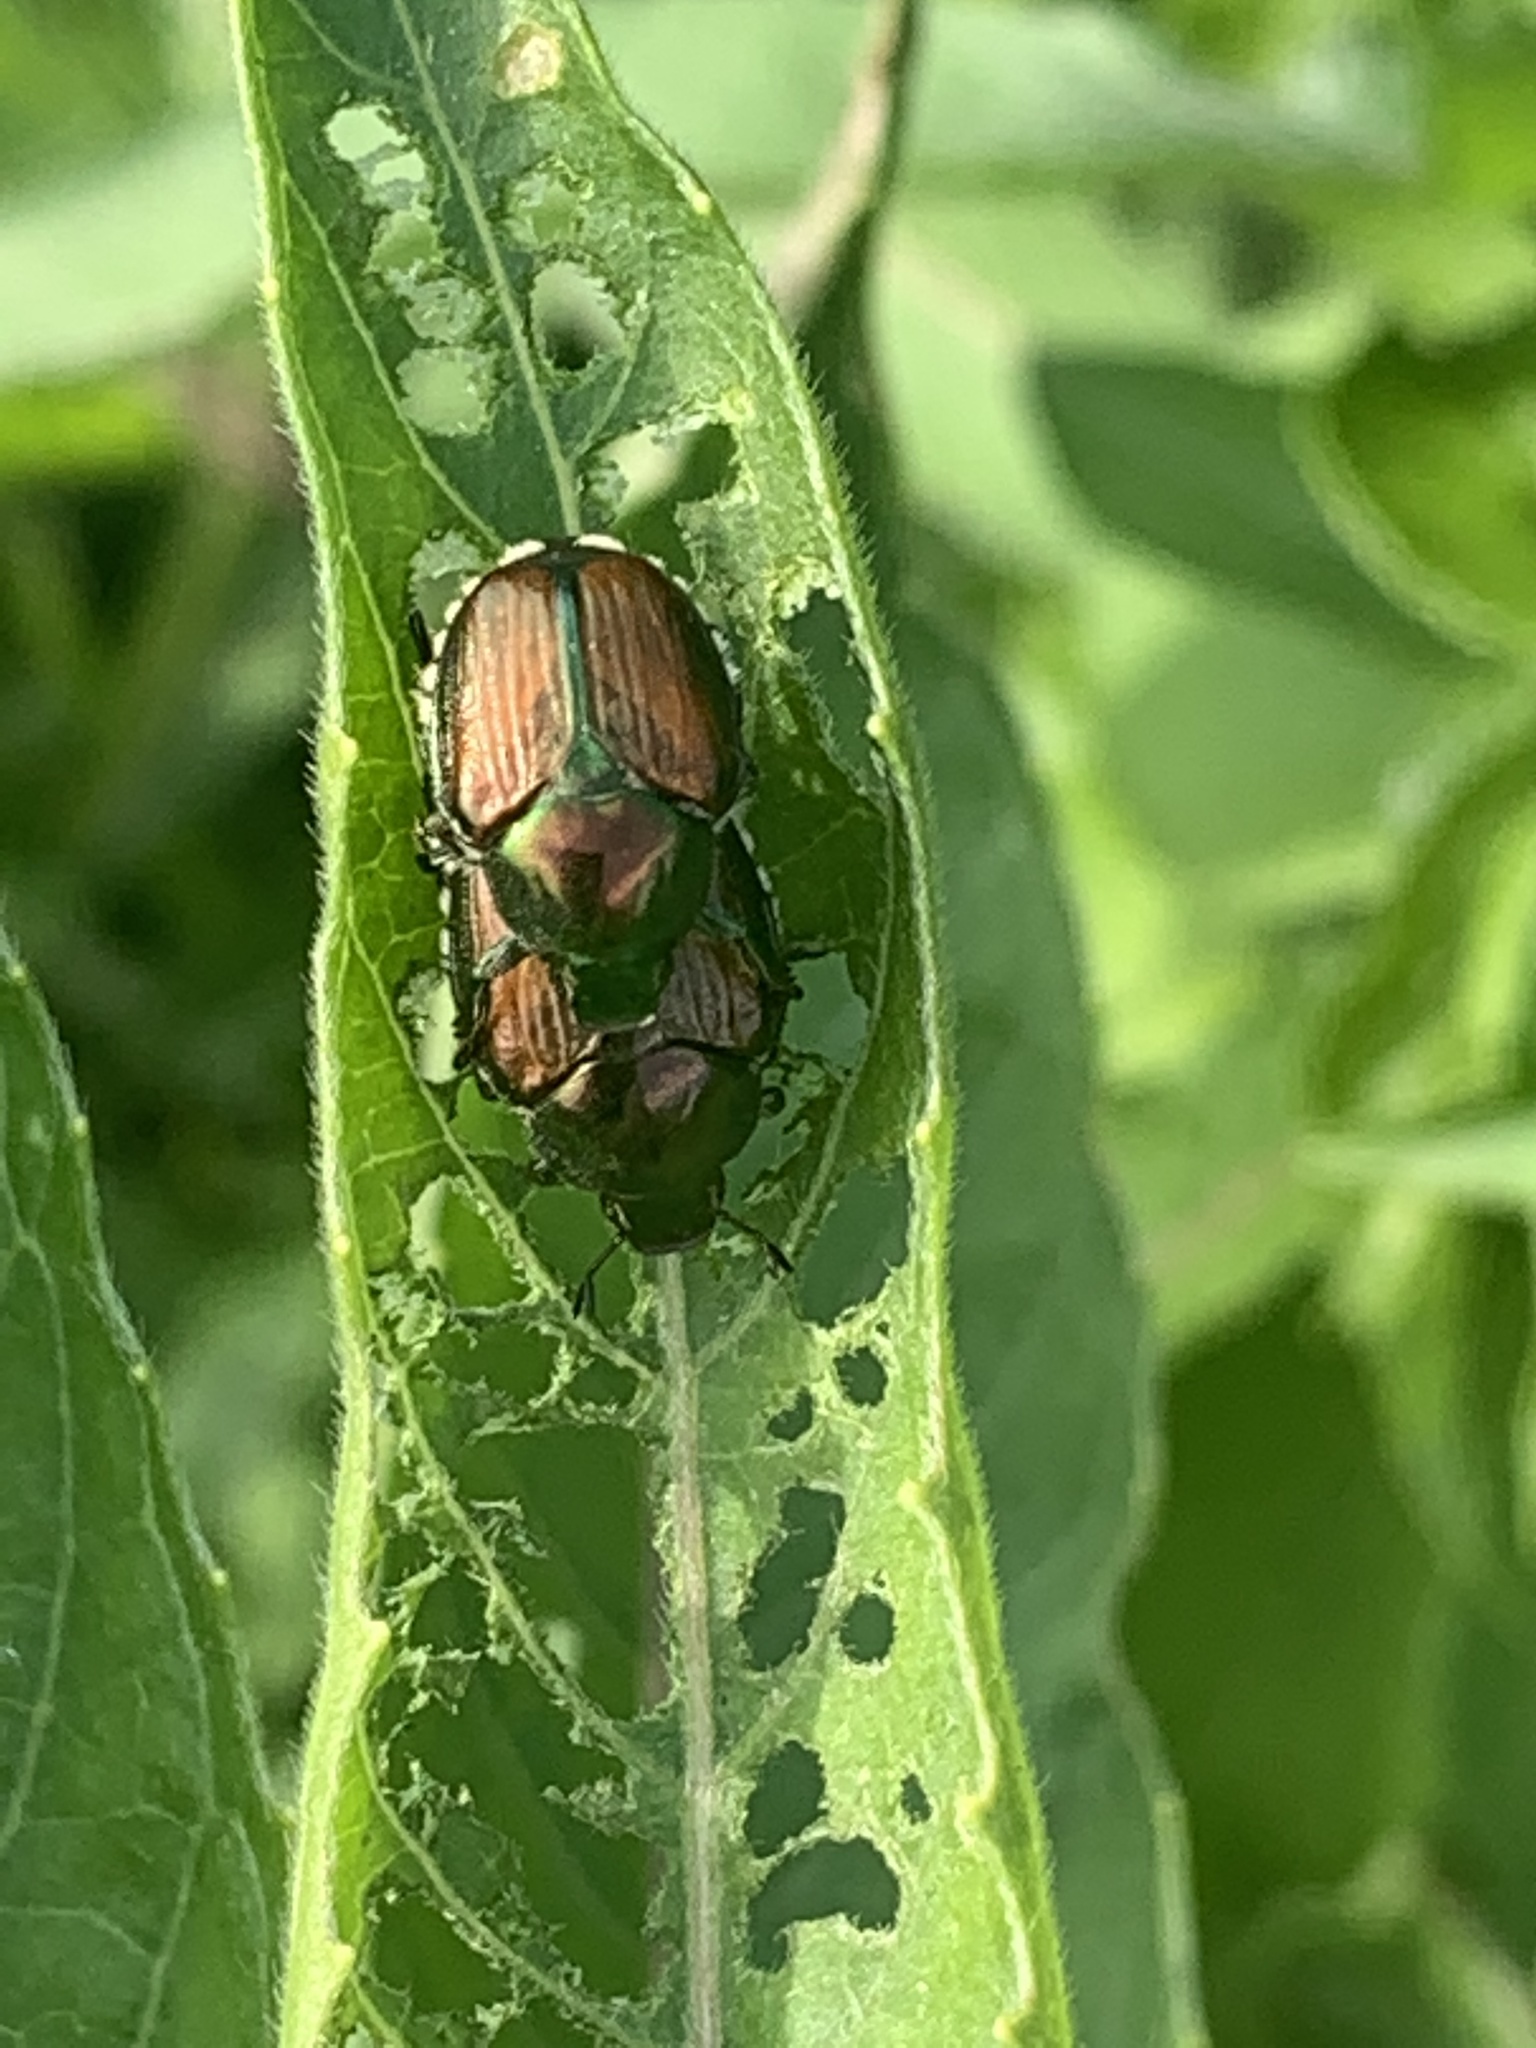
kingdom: Animalia
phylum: Arthropoda
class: Insecta
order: Coleoptera
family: Scarabaeidae
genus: Popillia
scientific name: Popillia japonica
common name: Japanese beetle
